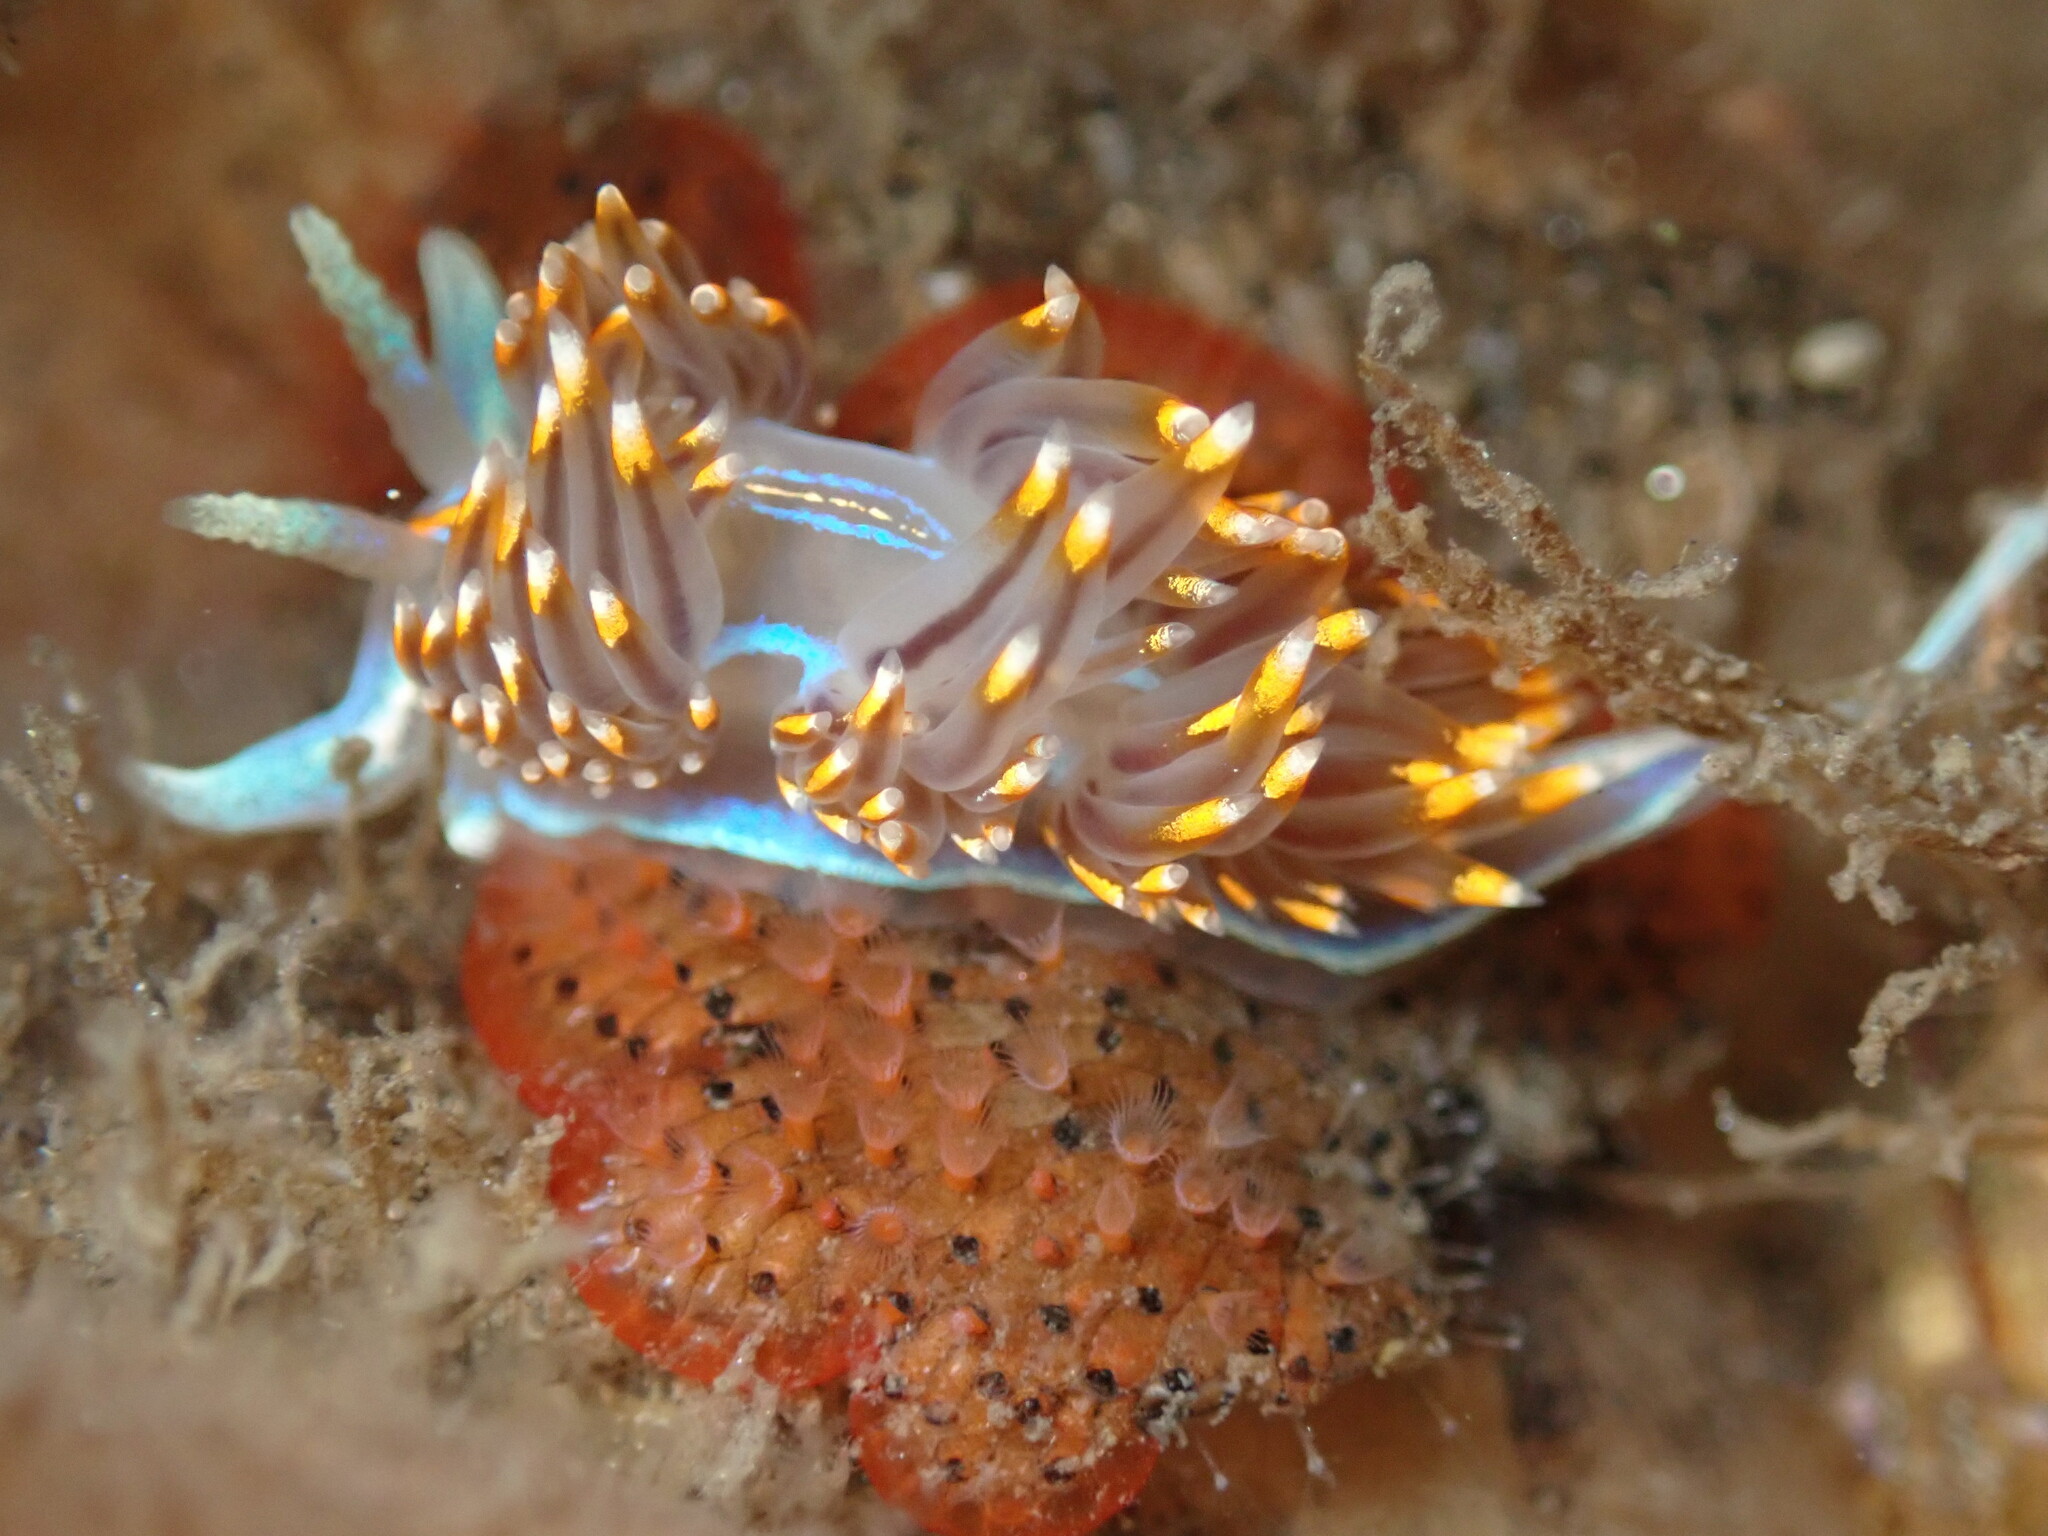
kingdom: Animalia
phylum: Mollusca
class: Gastropoda
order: Nudibranchia
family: Myrrhinidae
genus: Hermissenda
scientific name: Hermissenda opalescens
